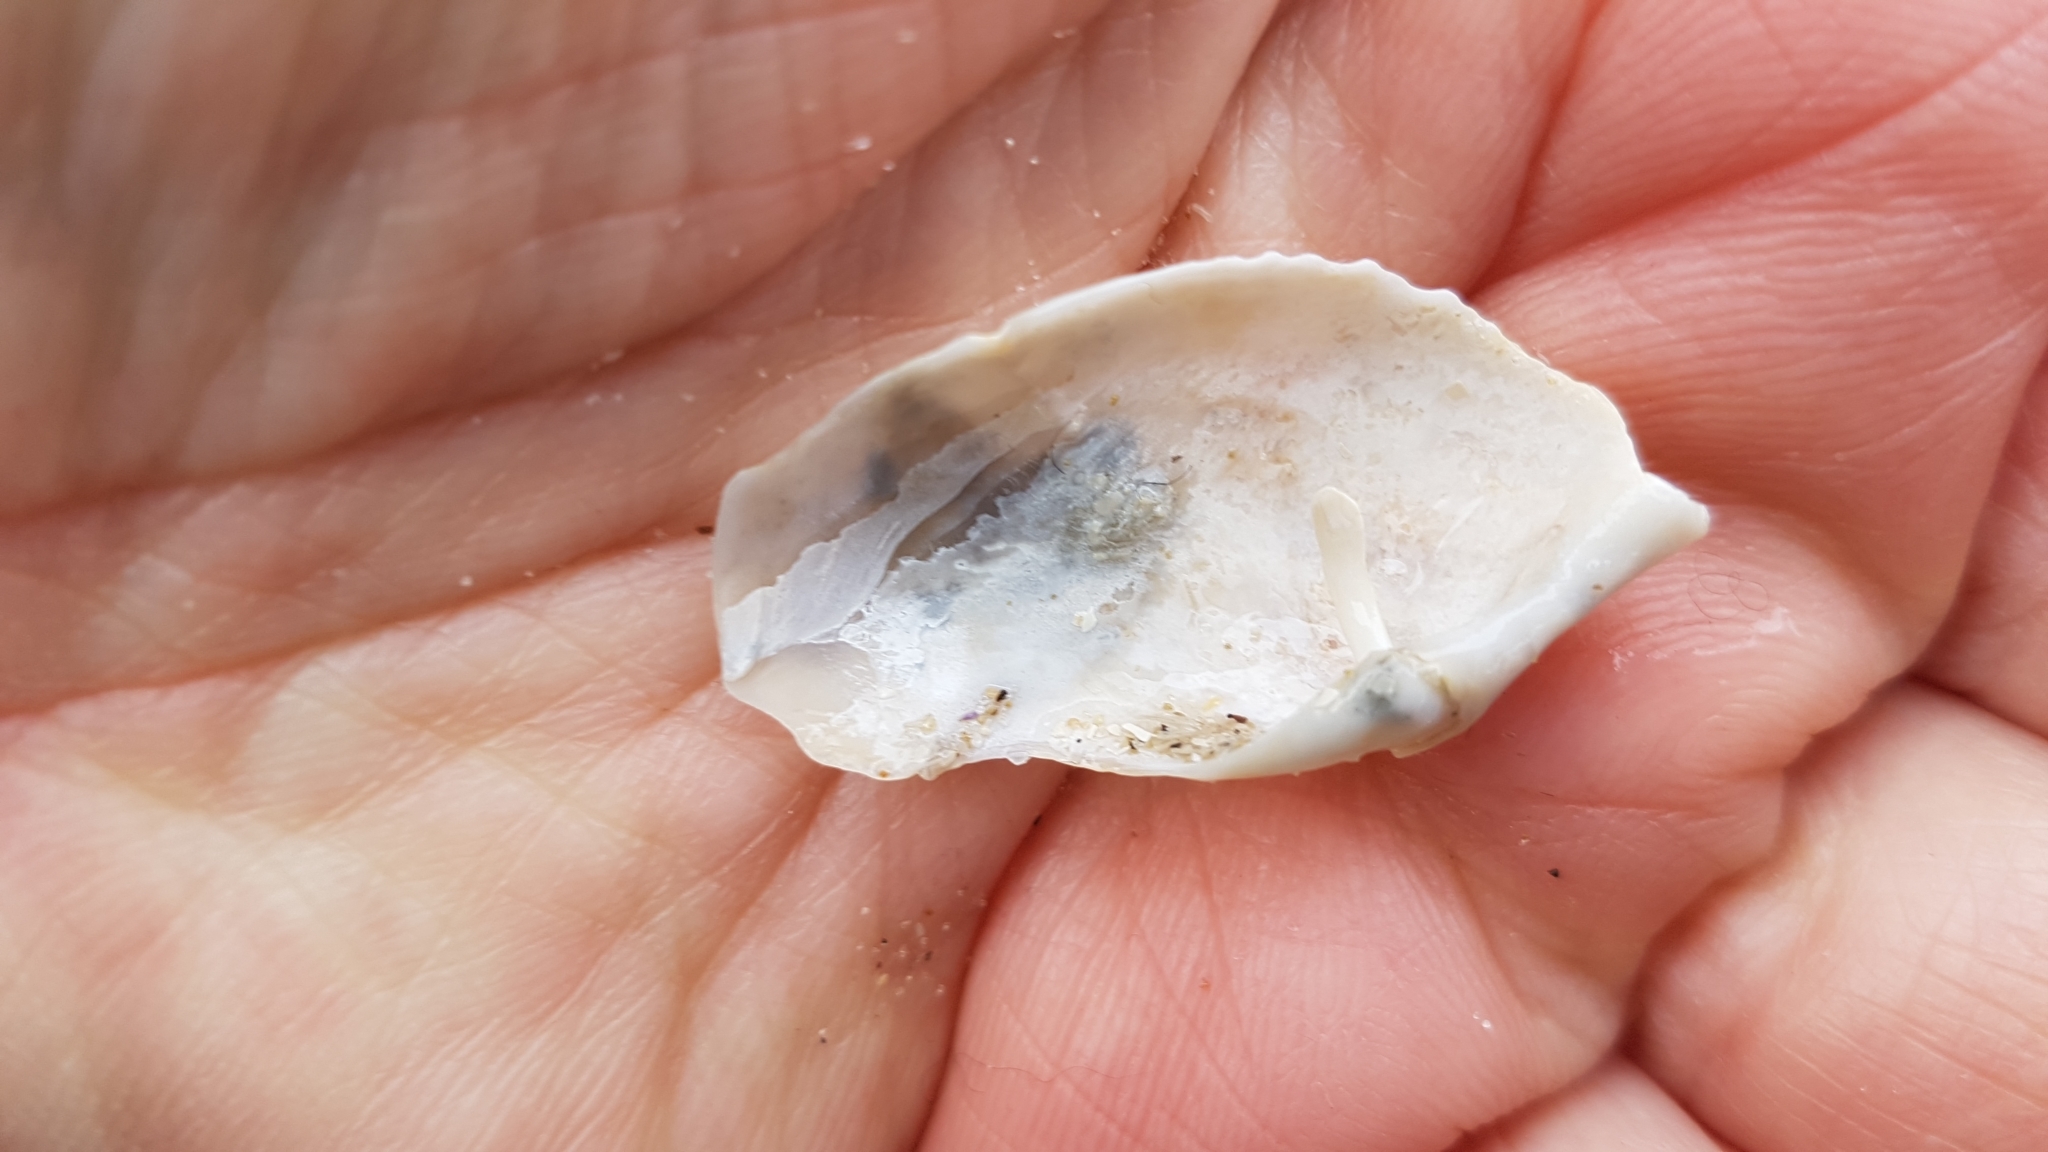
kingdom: Animalia
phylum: Mollusca
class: Bivalvia
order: Myida
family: Pholadidae
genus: Zirfaea
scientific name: Zirfaea crispata
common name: Oval piddock
